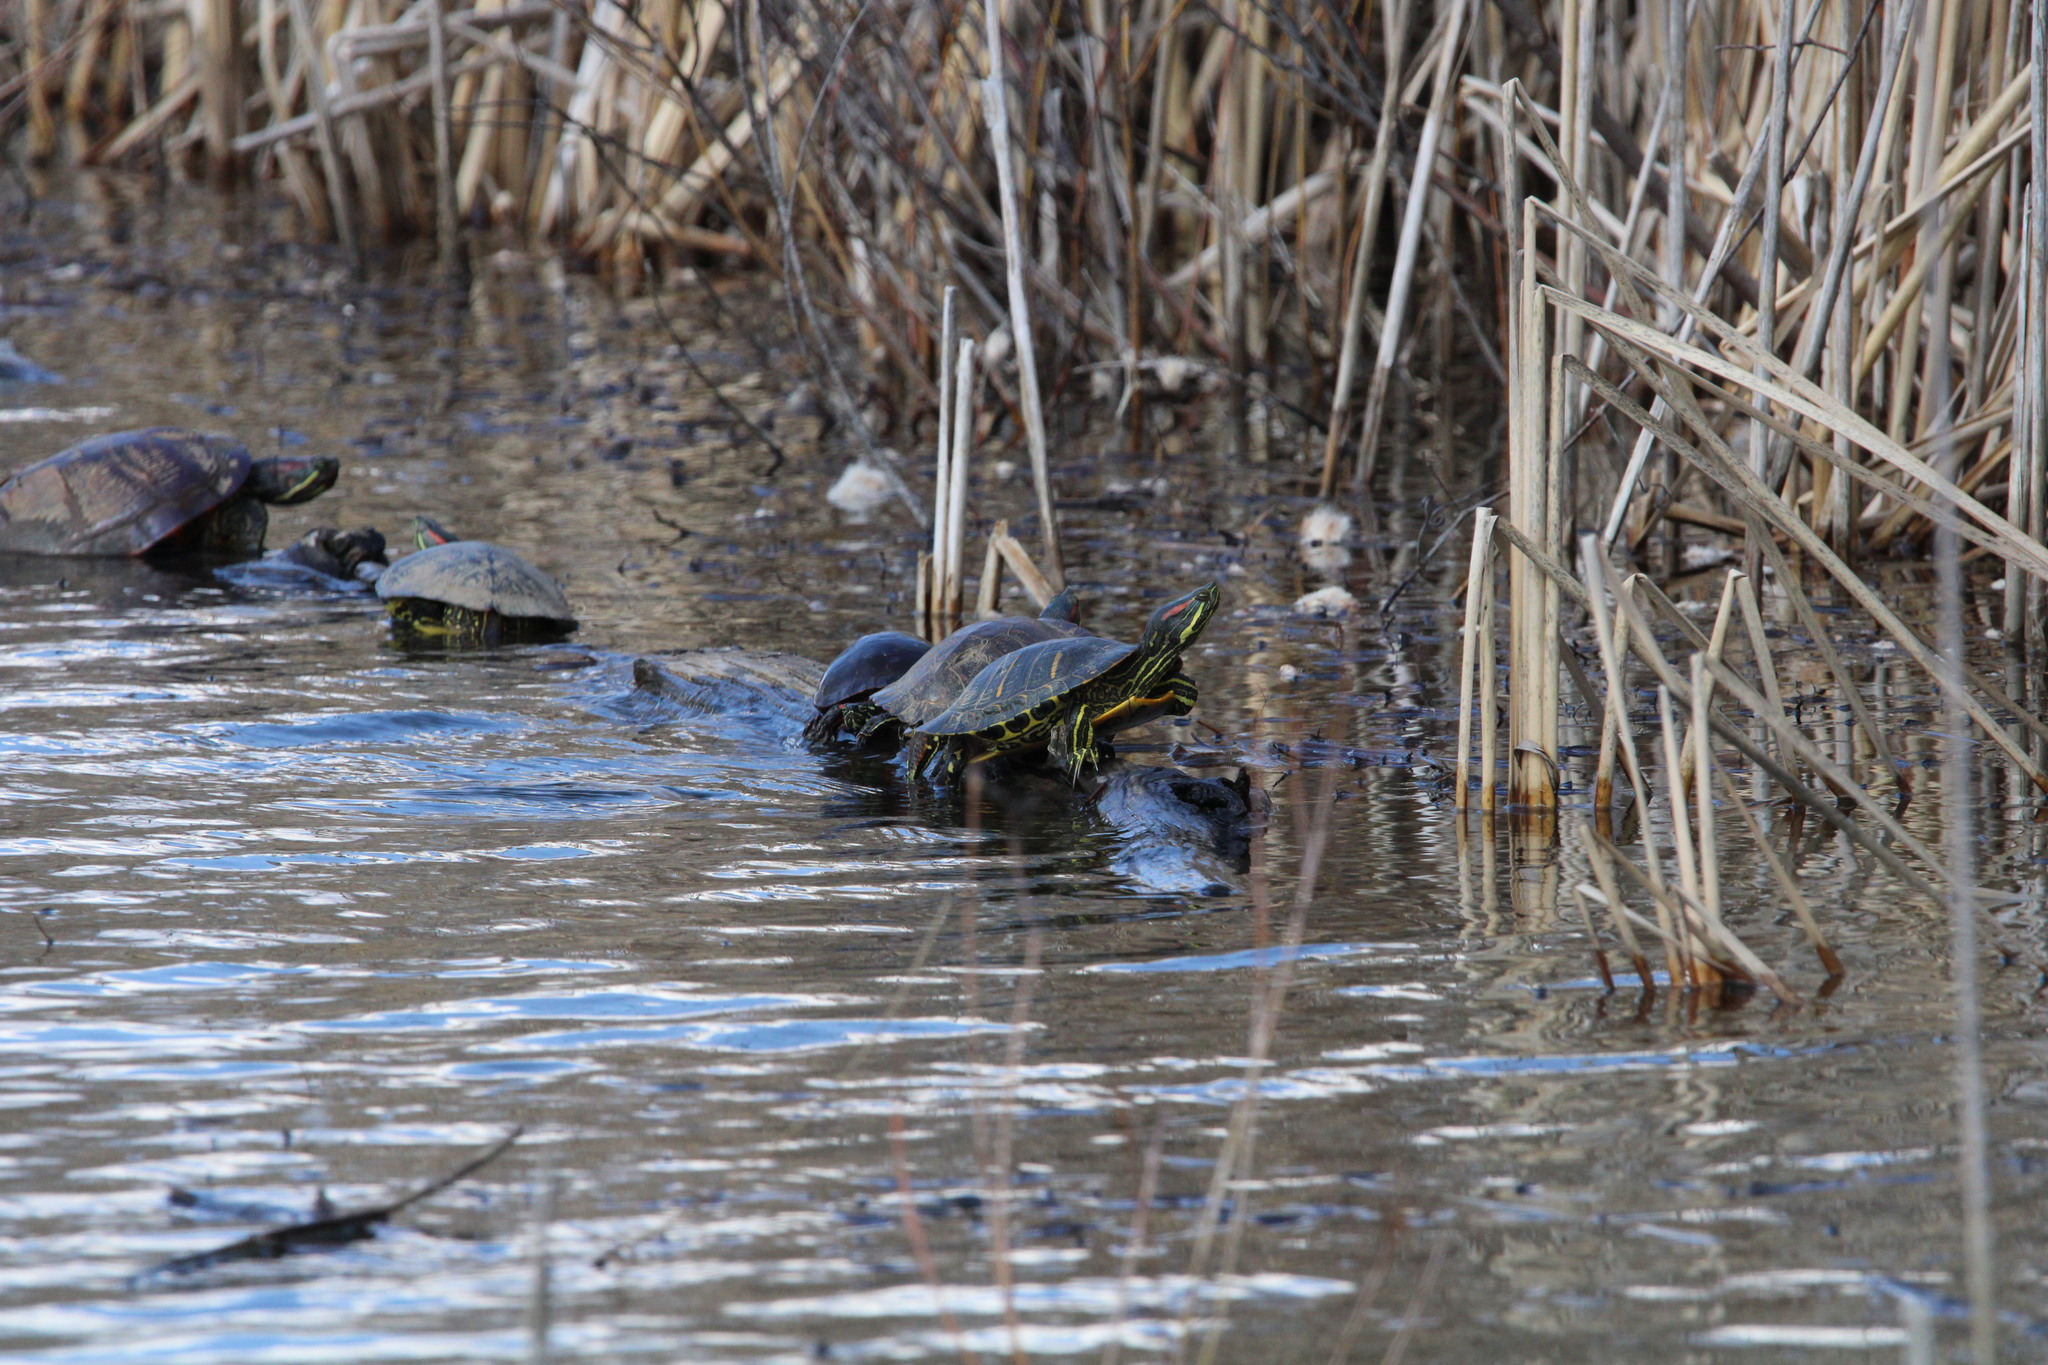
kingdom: Animalia
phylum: Chordata
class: Testudines
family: Emydidae
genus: Trachemys
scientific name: Trachemys scripta
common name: Slider
